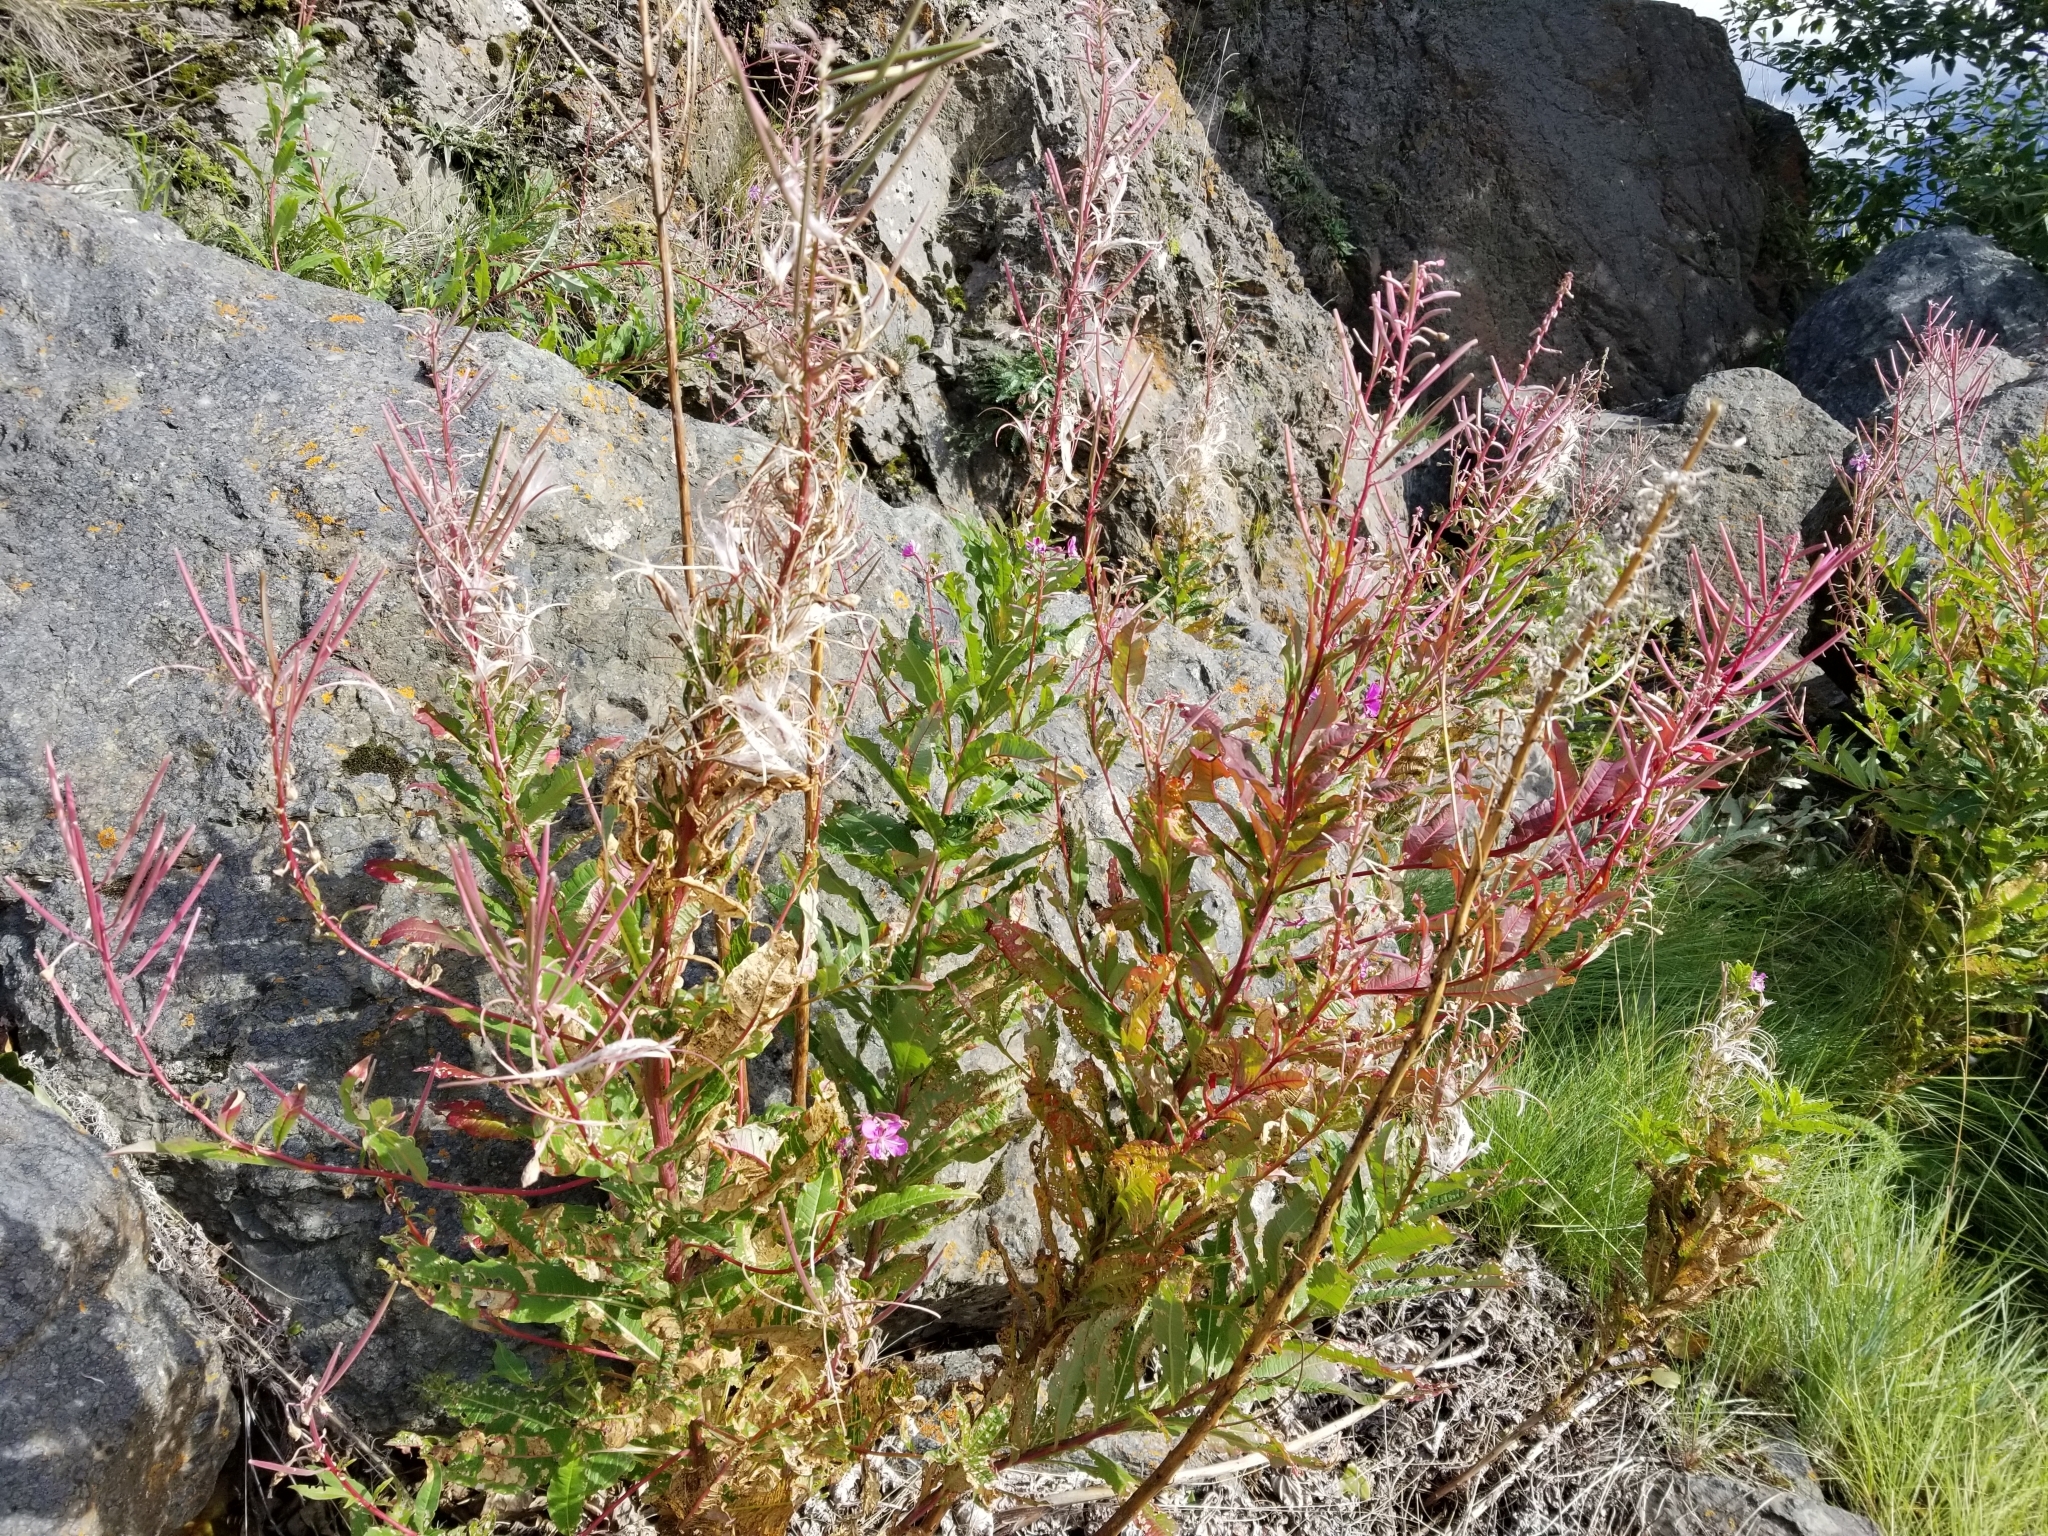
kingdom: Plantae
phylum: Tracheophyta
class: Magnoliopsida
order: Myrtales
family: Onagraceae
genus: Chamaenerion
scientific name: Chamaenerion angustifolium
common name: Fireweed
